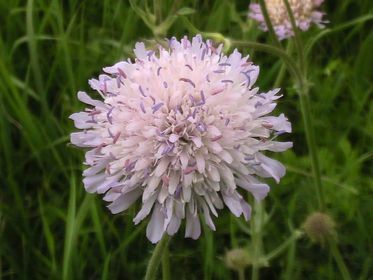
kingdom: Plantae
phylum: Tracheophyta
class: Magnoliopsida
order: Dipsacales
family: Caprifoliaceae
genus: Knautia
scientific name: Knautia arvensis
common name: Field scabiosa
